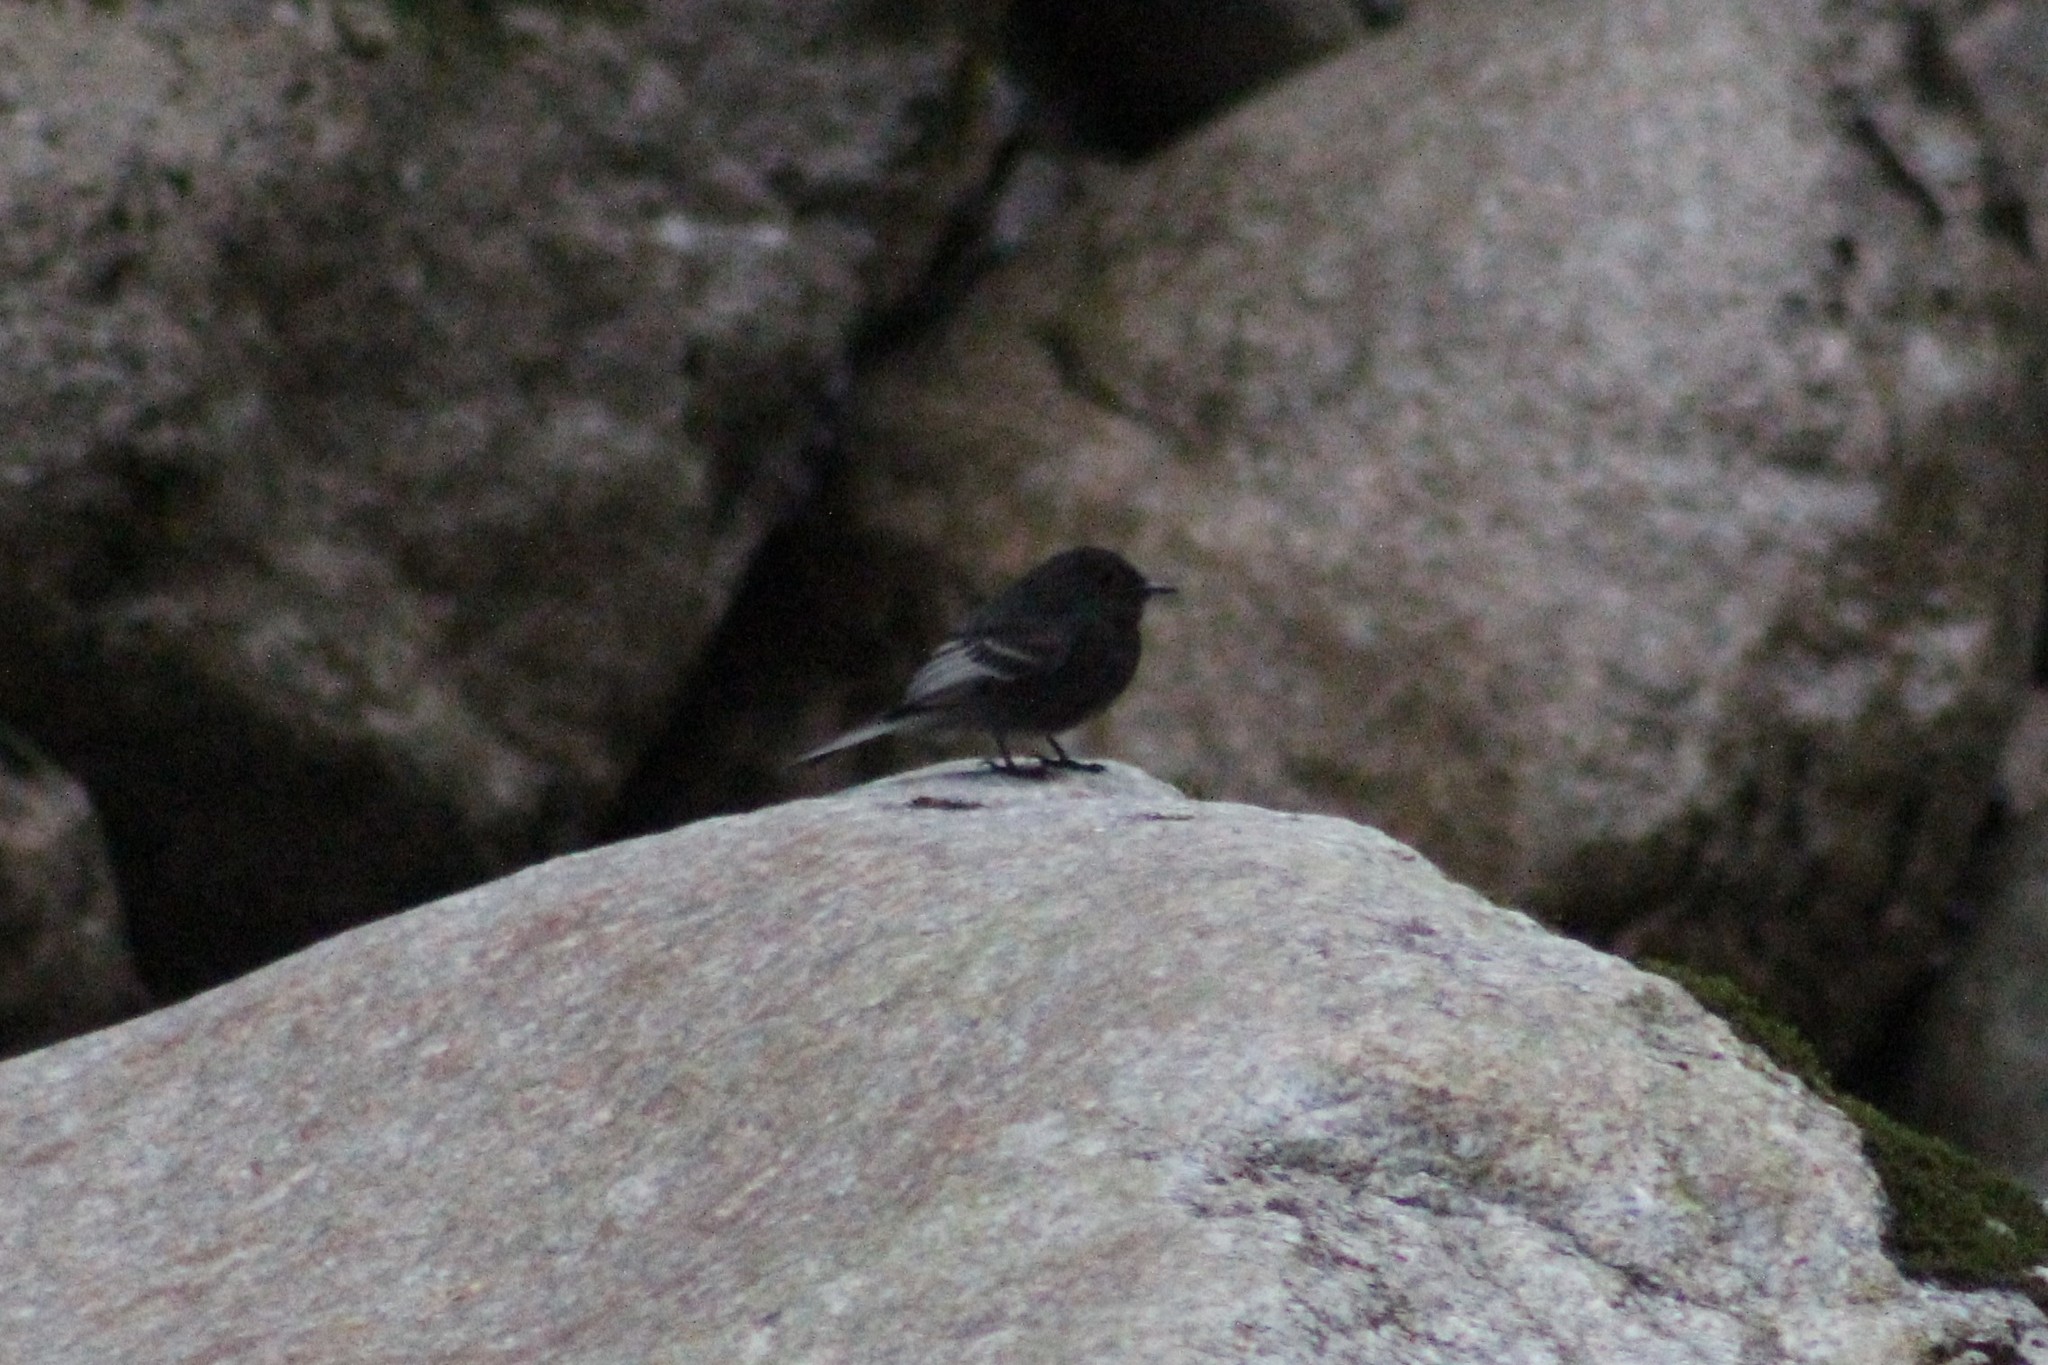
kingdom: Animalia
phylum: Chordata
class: Aves
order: Passeriformes
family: Tyrannidae
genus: Sayornis
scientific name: Sayornis nigricans
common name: Black phoebe
